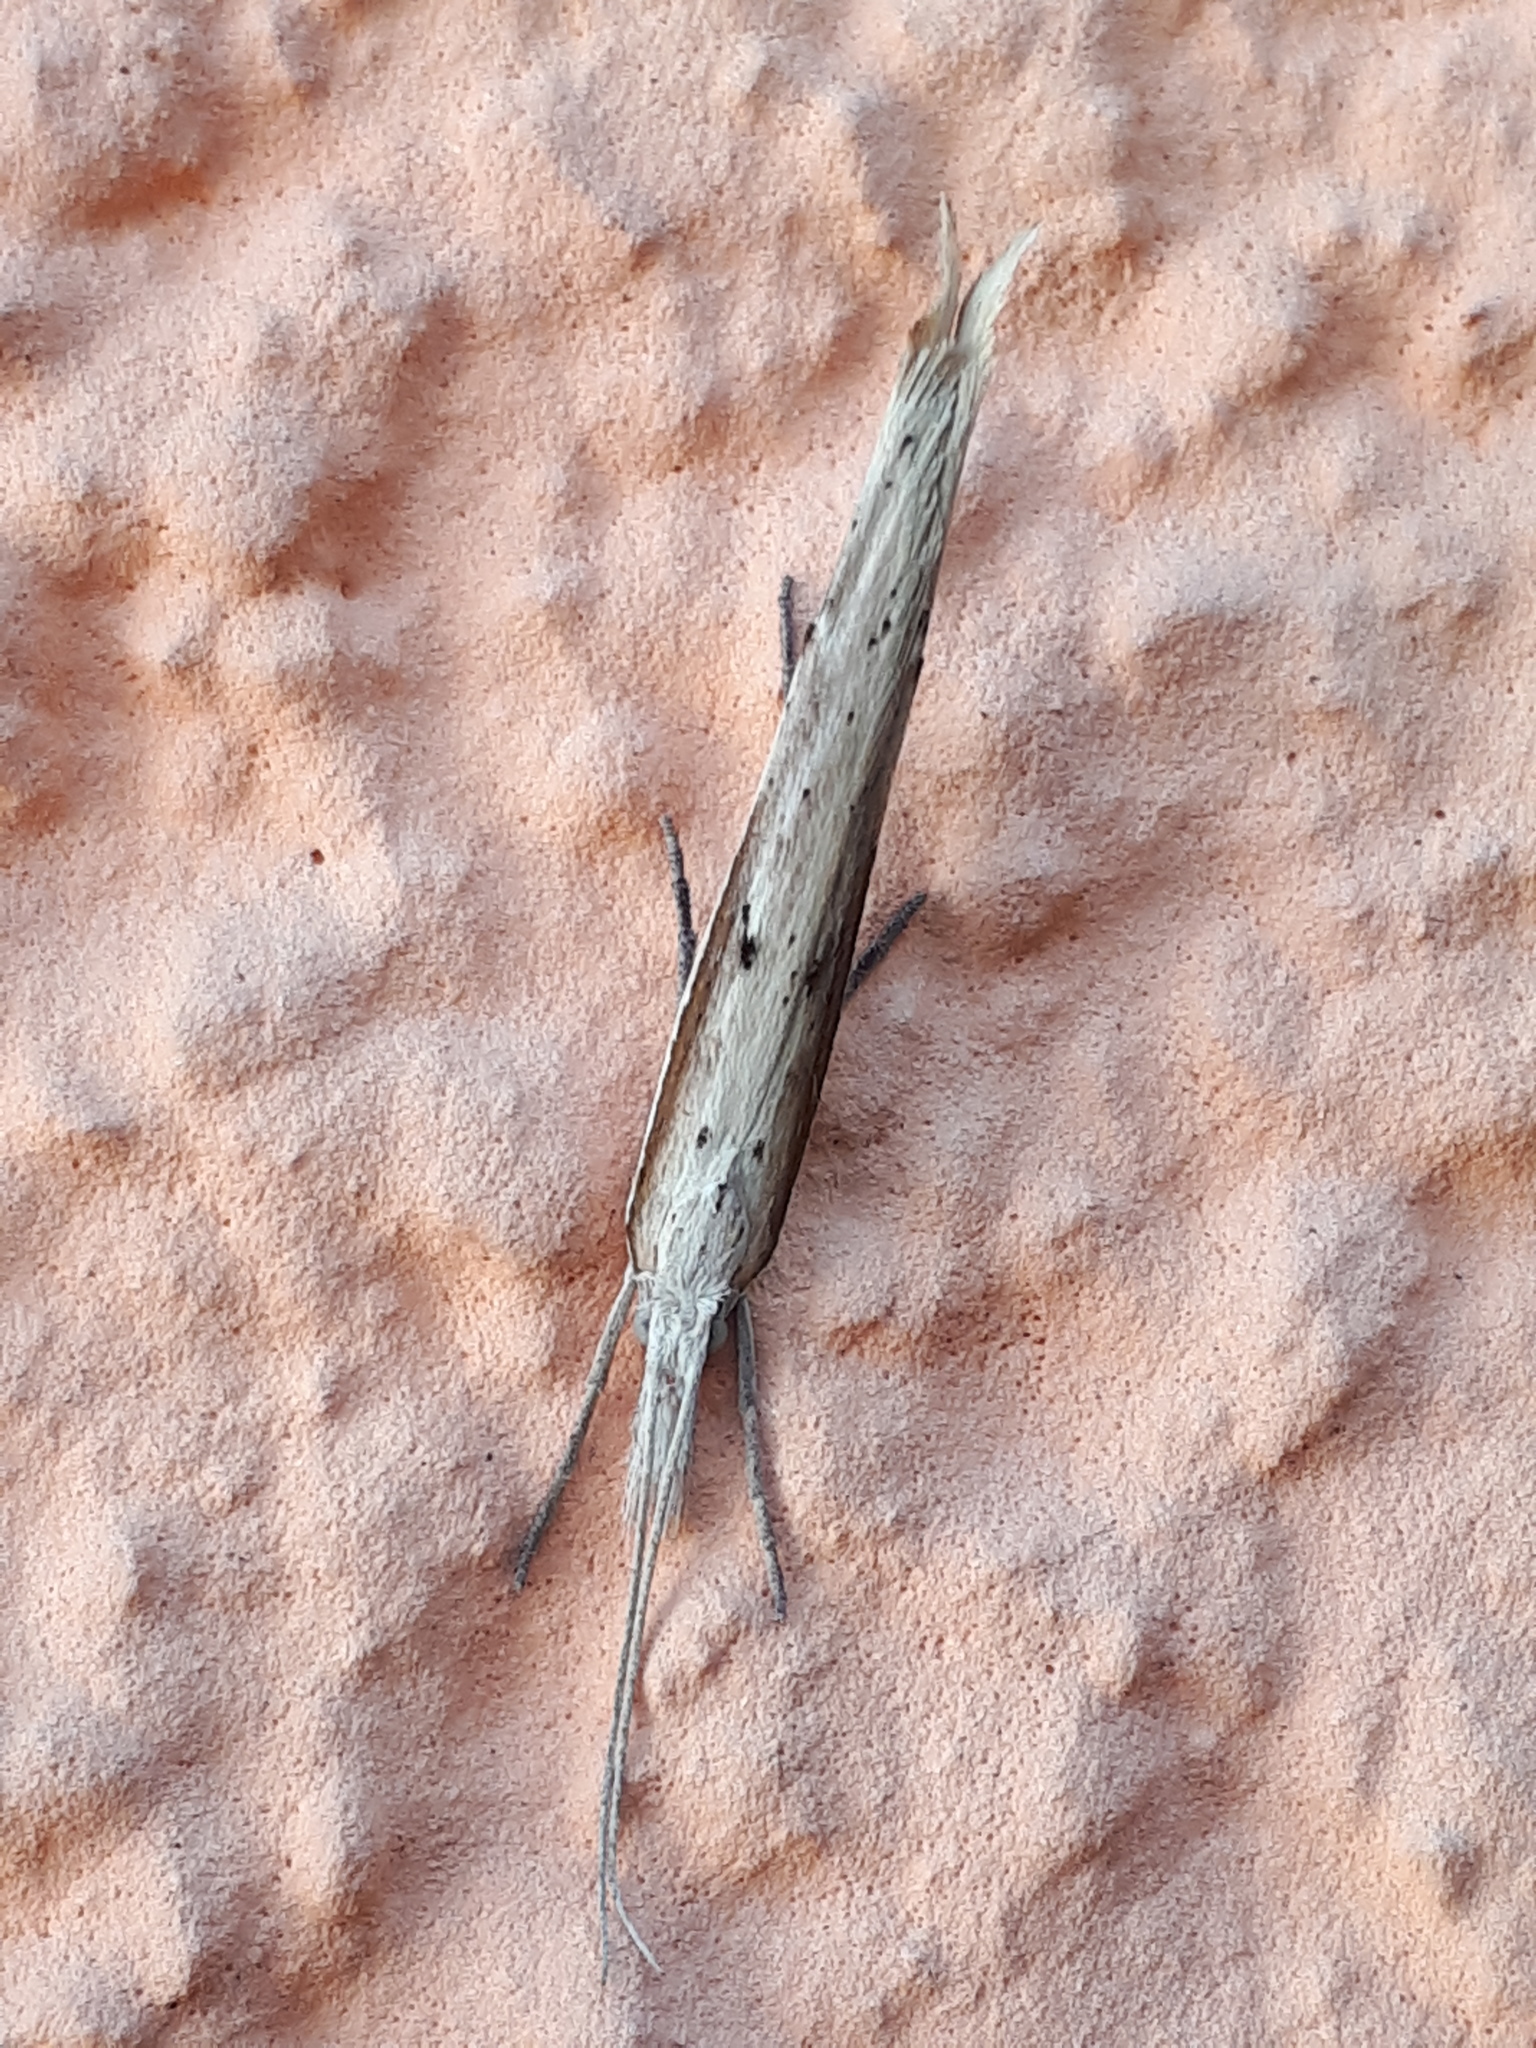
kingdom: Animalia
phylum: Arthropoda
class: Insecta
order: Lepidoptera
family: Ypsolophidae
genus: Ypsolopha
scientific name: Ypsolopha mucronella
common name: Spindle smudge
